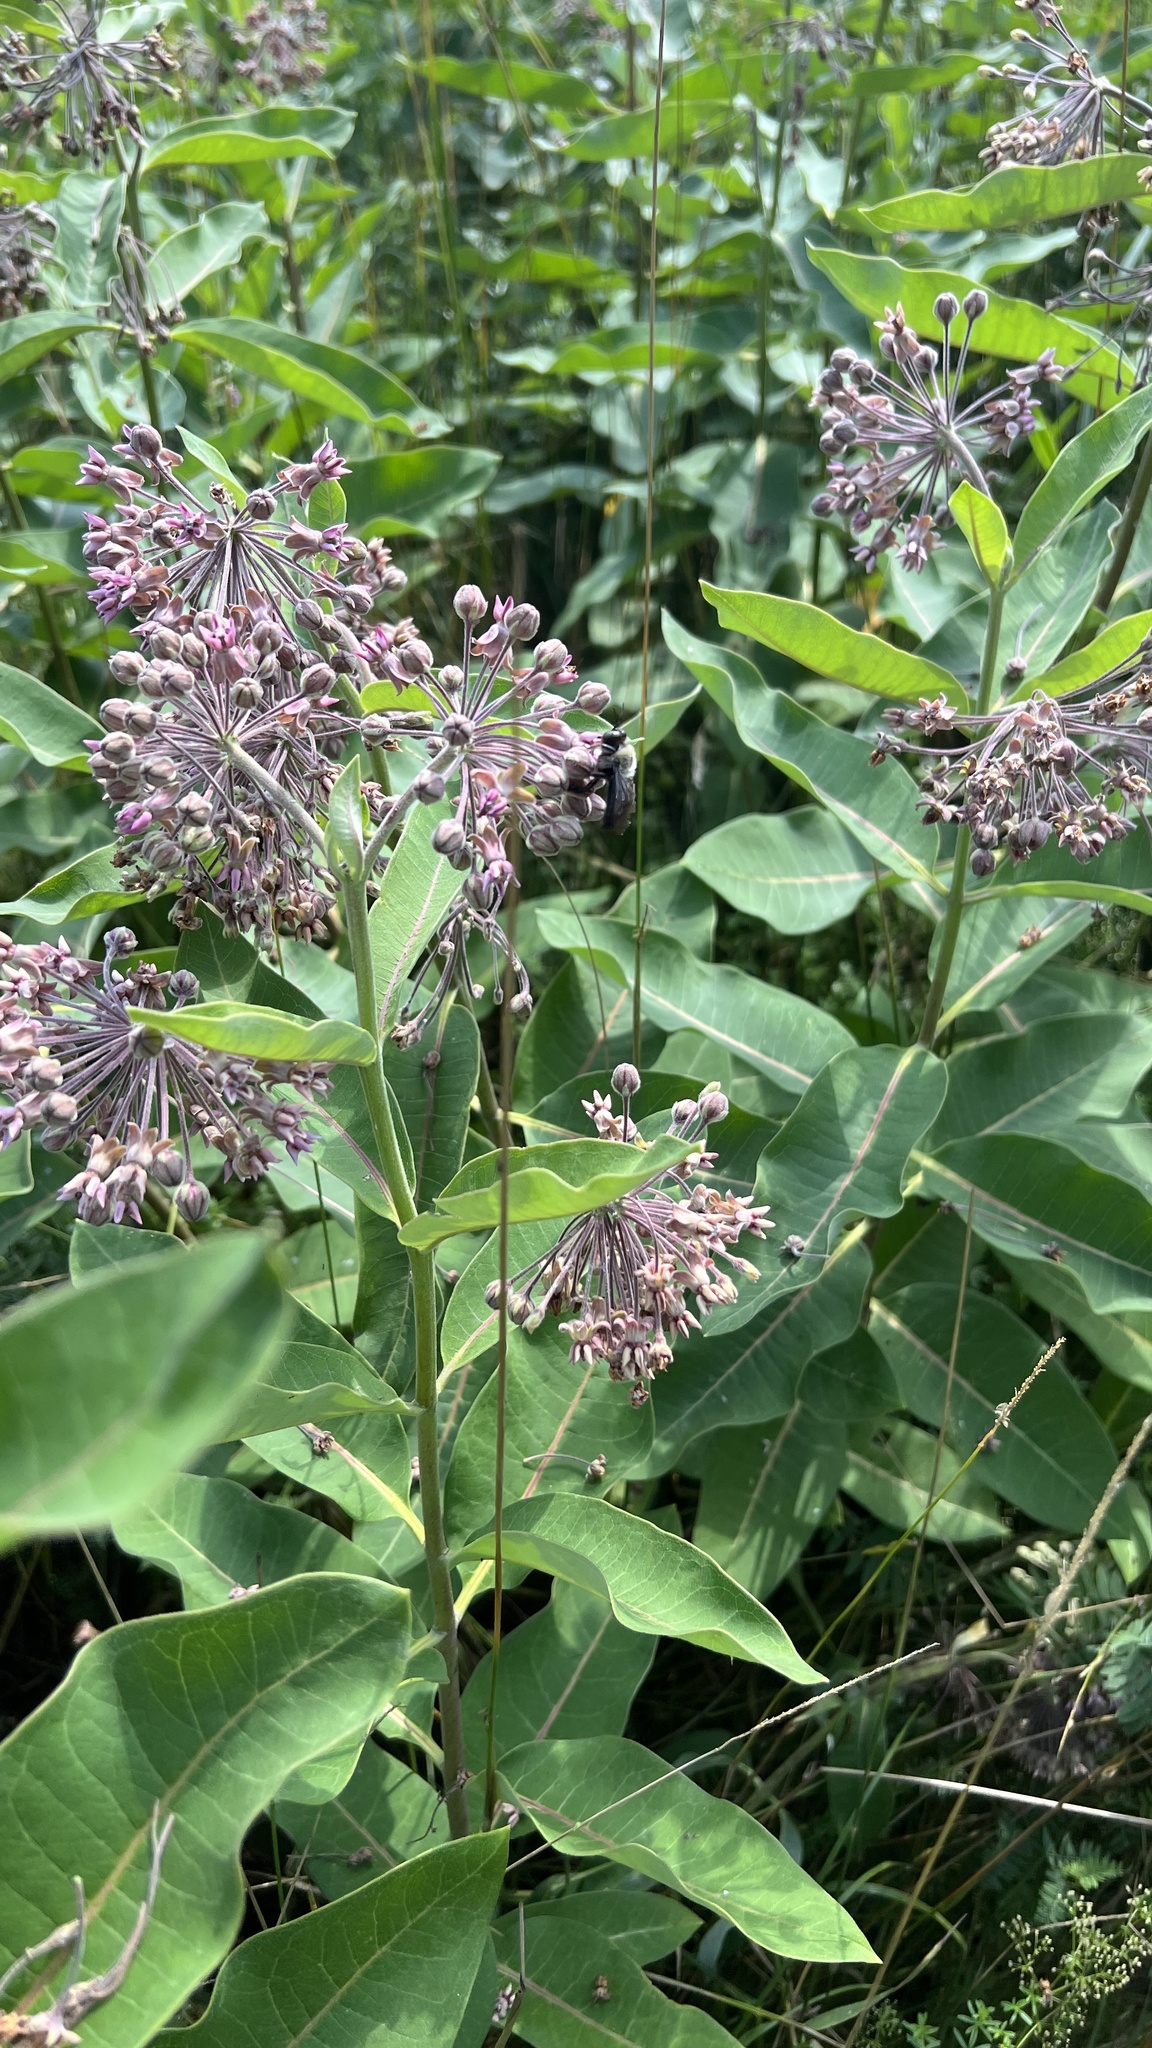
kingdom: Plantae
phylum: Tracheophyta
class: Magnoliopsida
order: Gentianales
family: Apocynaceae
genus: Asclepias
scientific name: Asclepias syriaca
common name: Common milkweed
